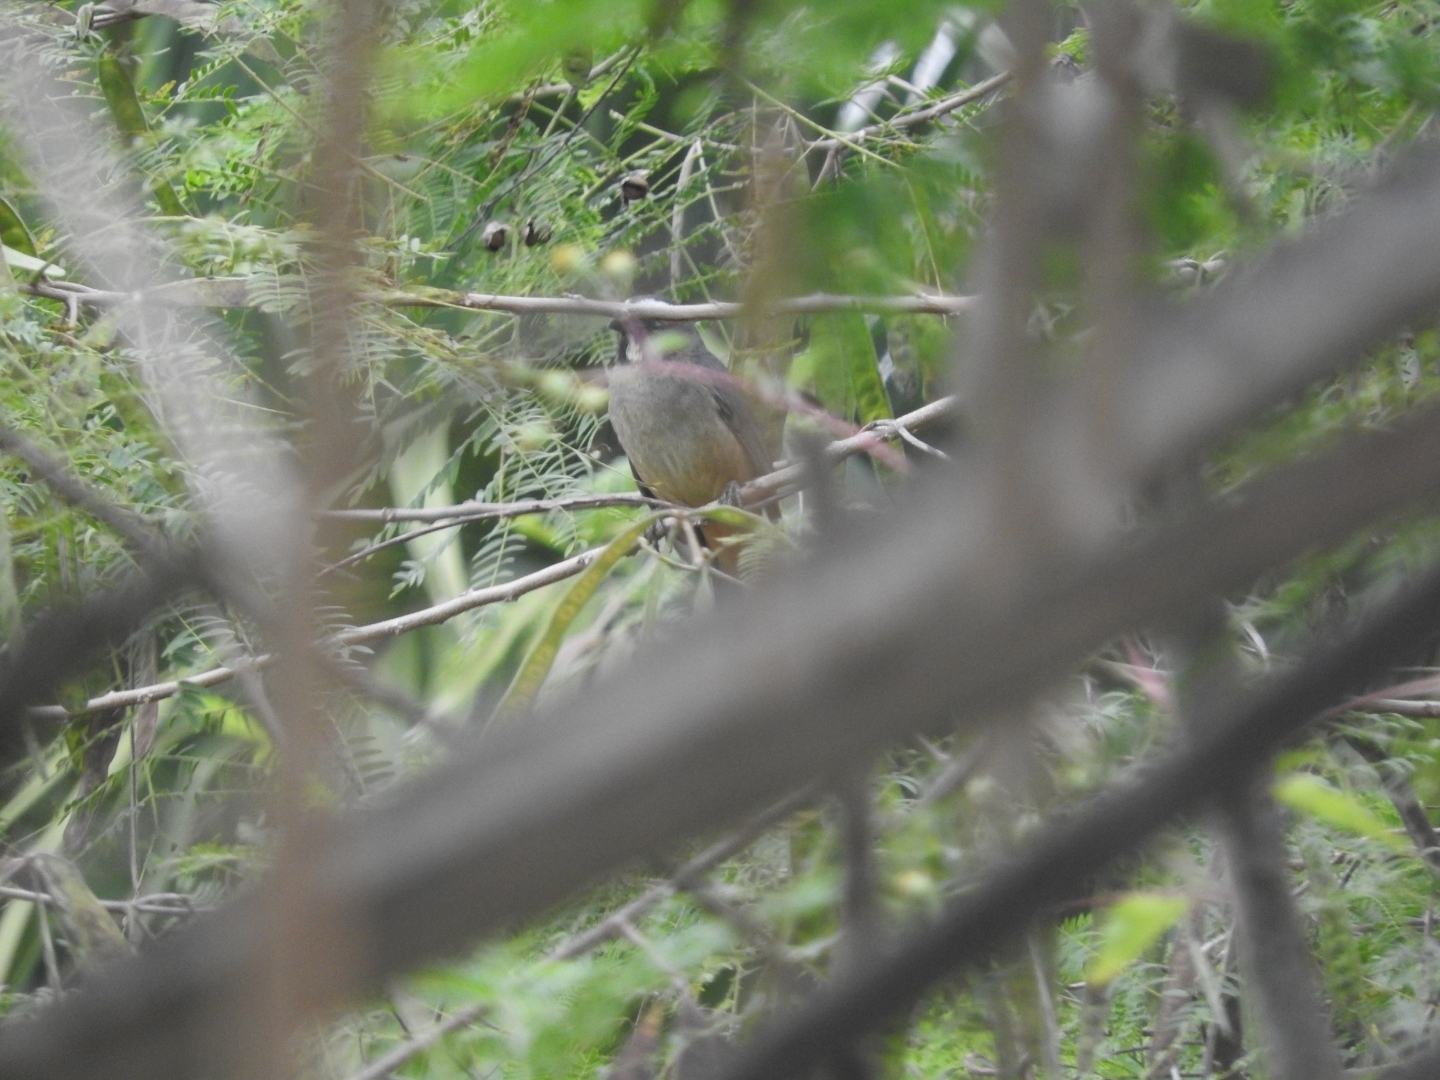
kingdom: Animalia
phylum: Chordata
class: Aves
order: Passeriformes
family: Thraupidae
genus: Saltator
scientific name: Saltator grandis
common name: Cinnamon-bellied saltator
